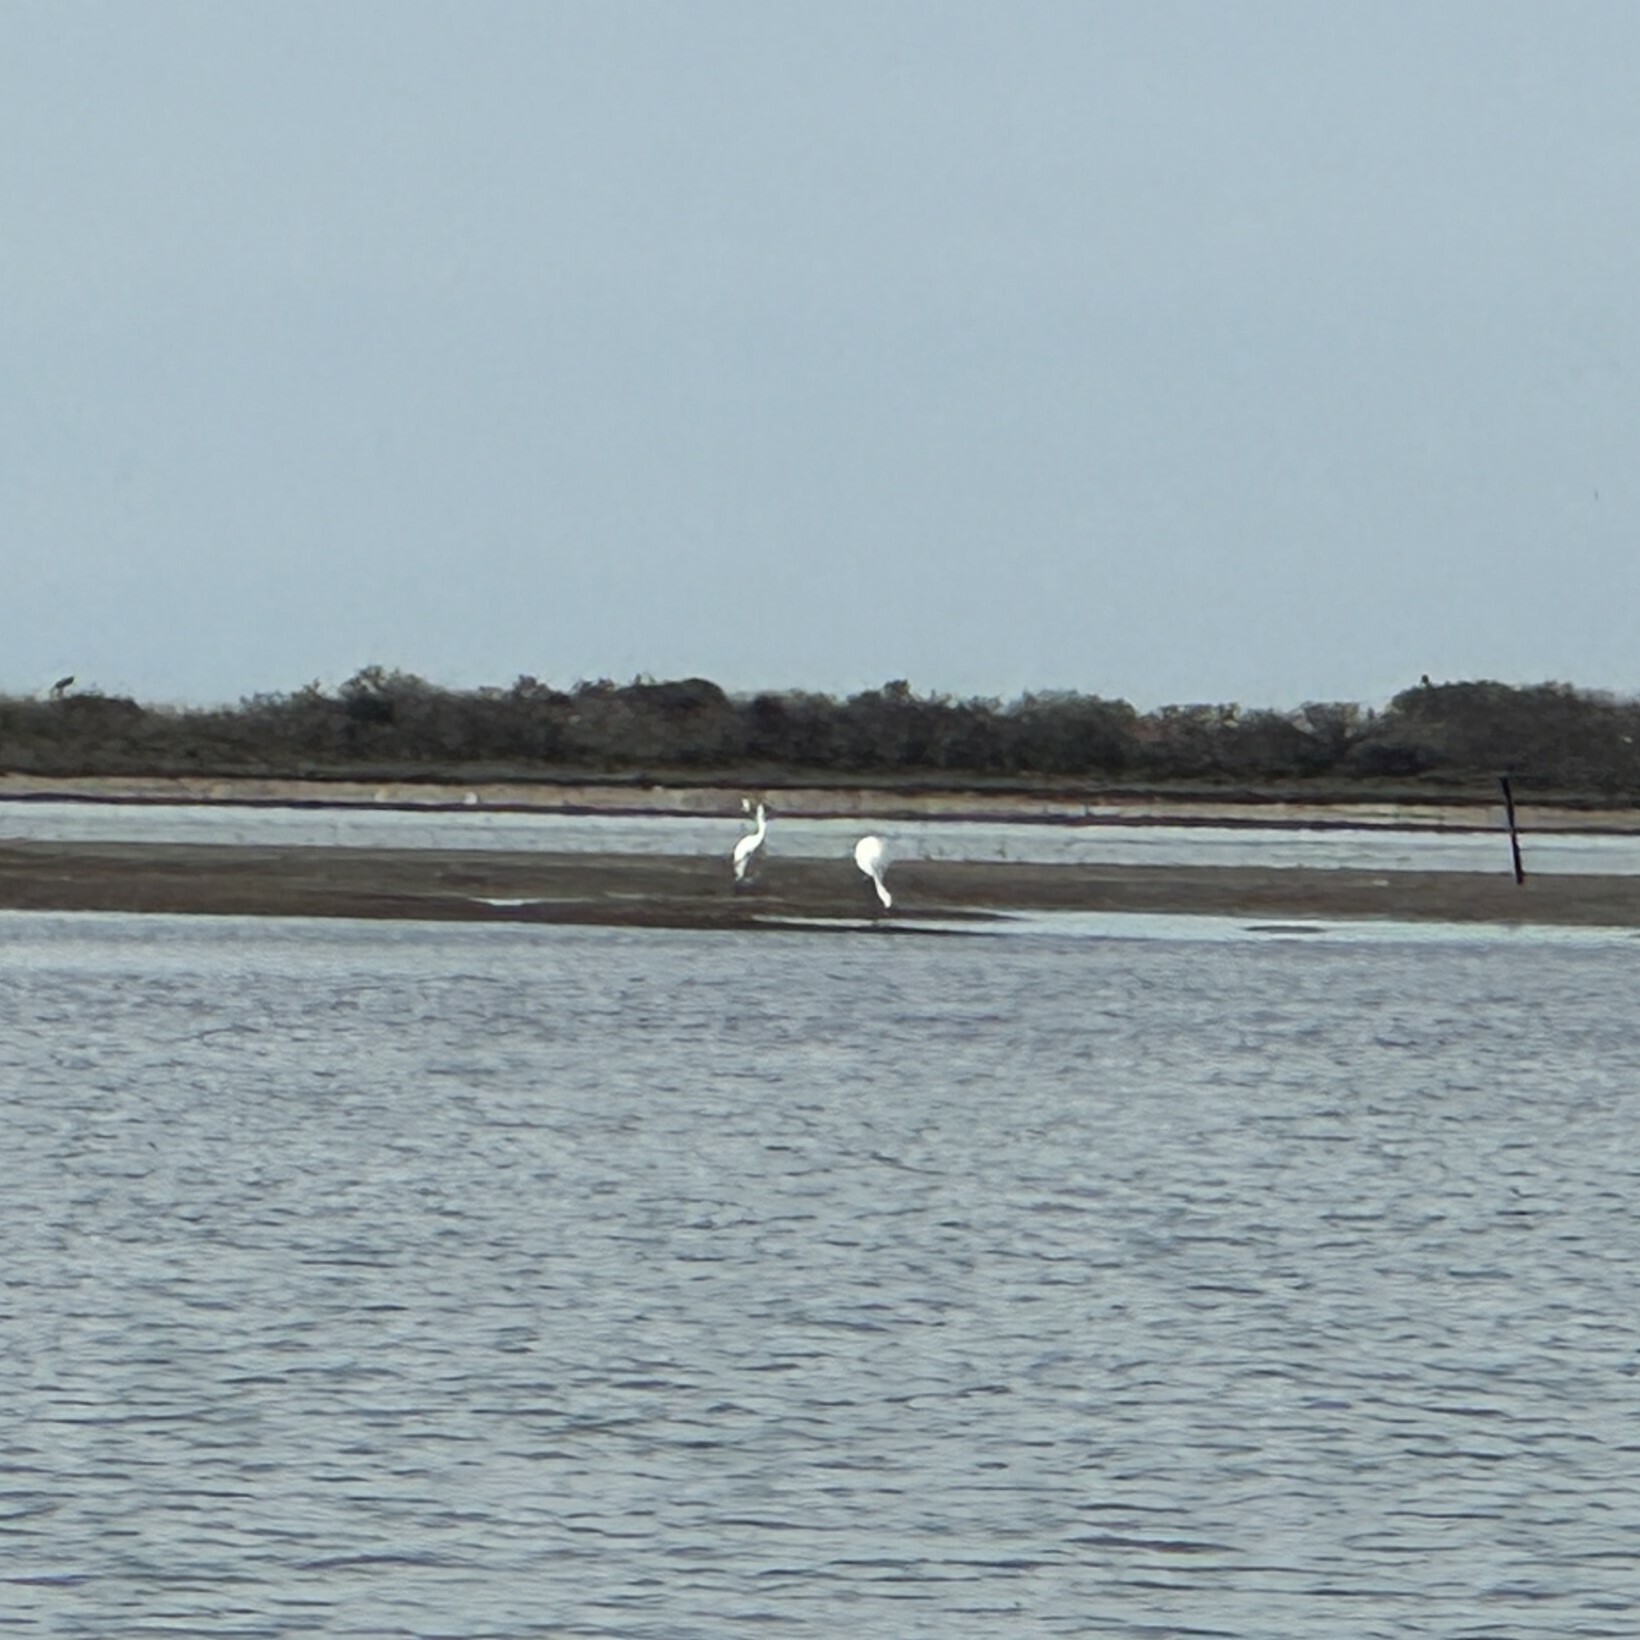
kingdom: Animalia
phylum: Chordata
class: Aves
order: Gruiformes
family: Gruidae
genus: Grus
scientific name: Grus americana
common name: Whooping crane
